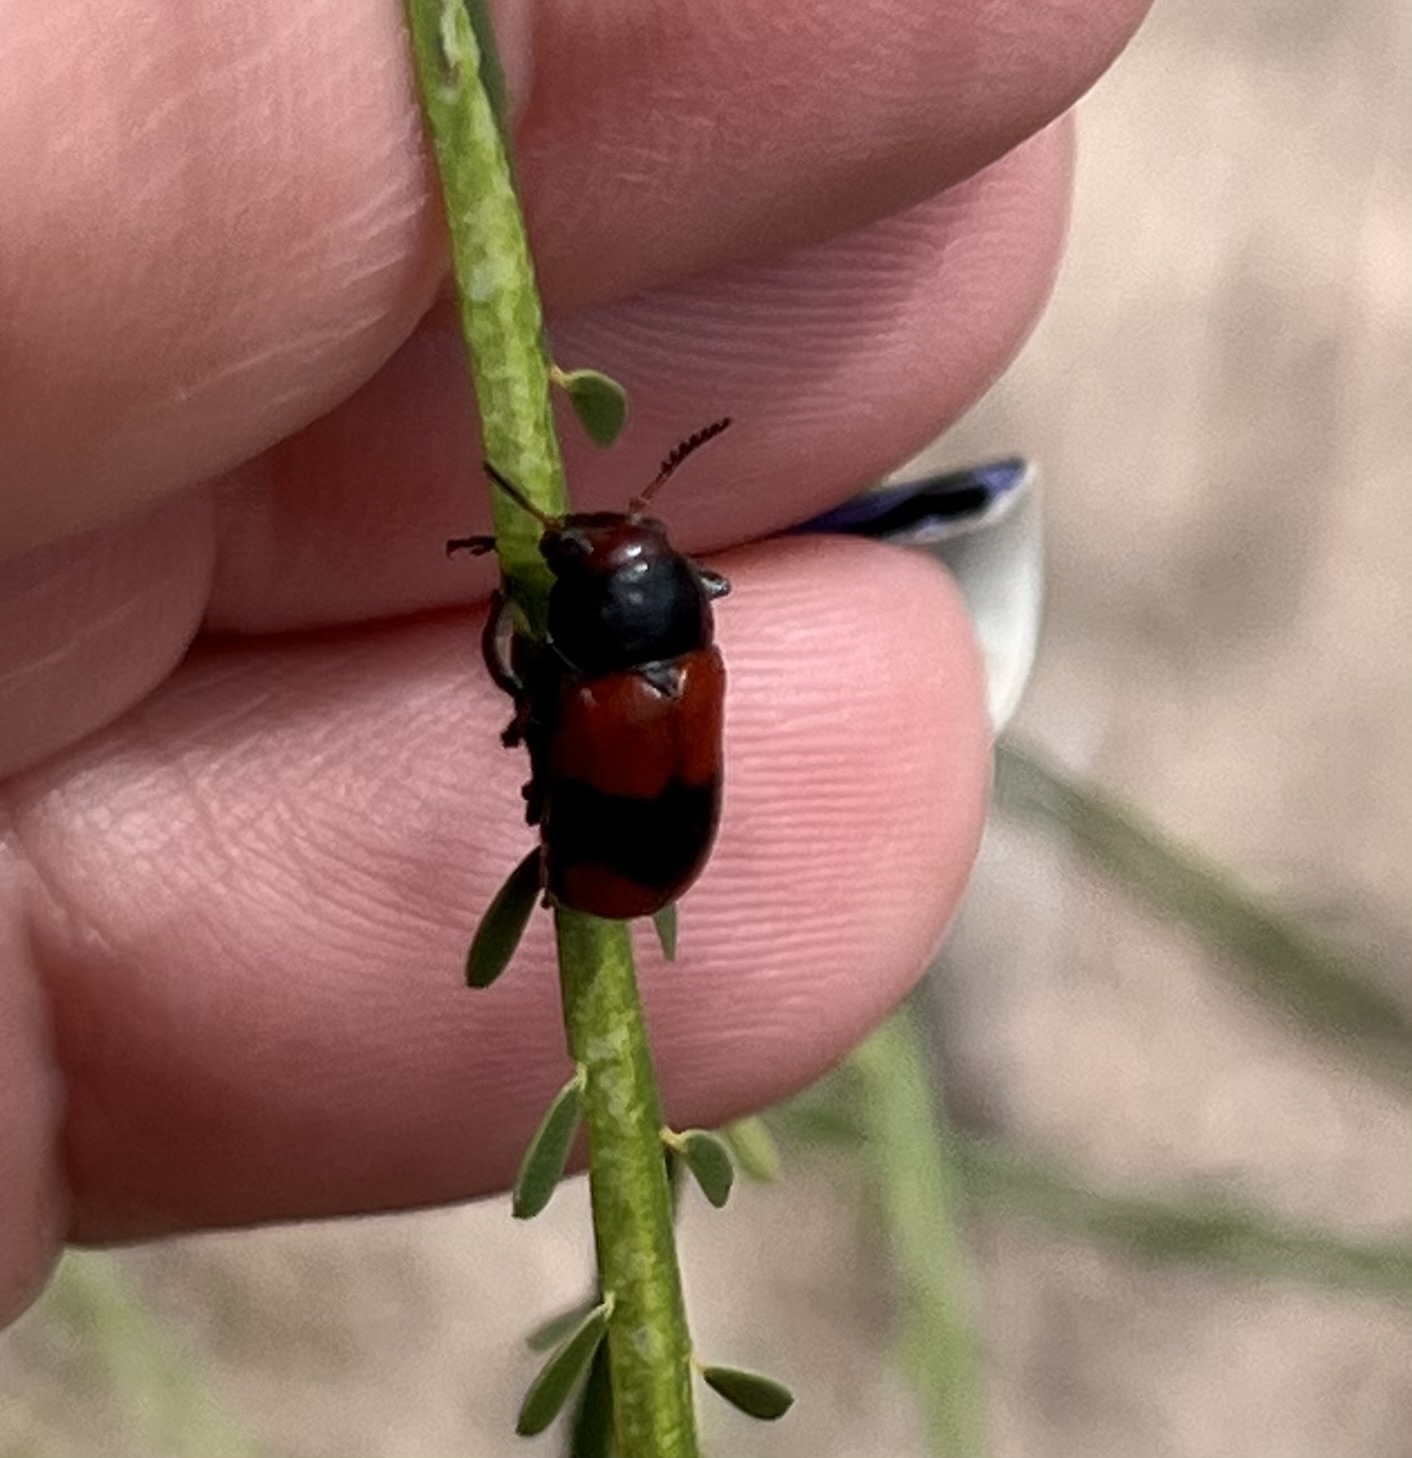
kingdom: Animalia
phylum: Arthropoda
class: Insecta
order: Coleoptera
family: Chrysomelidae
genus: Anomoea
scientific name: Anomoea rufifrons
